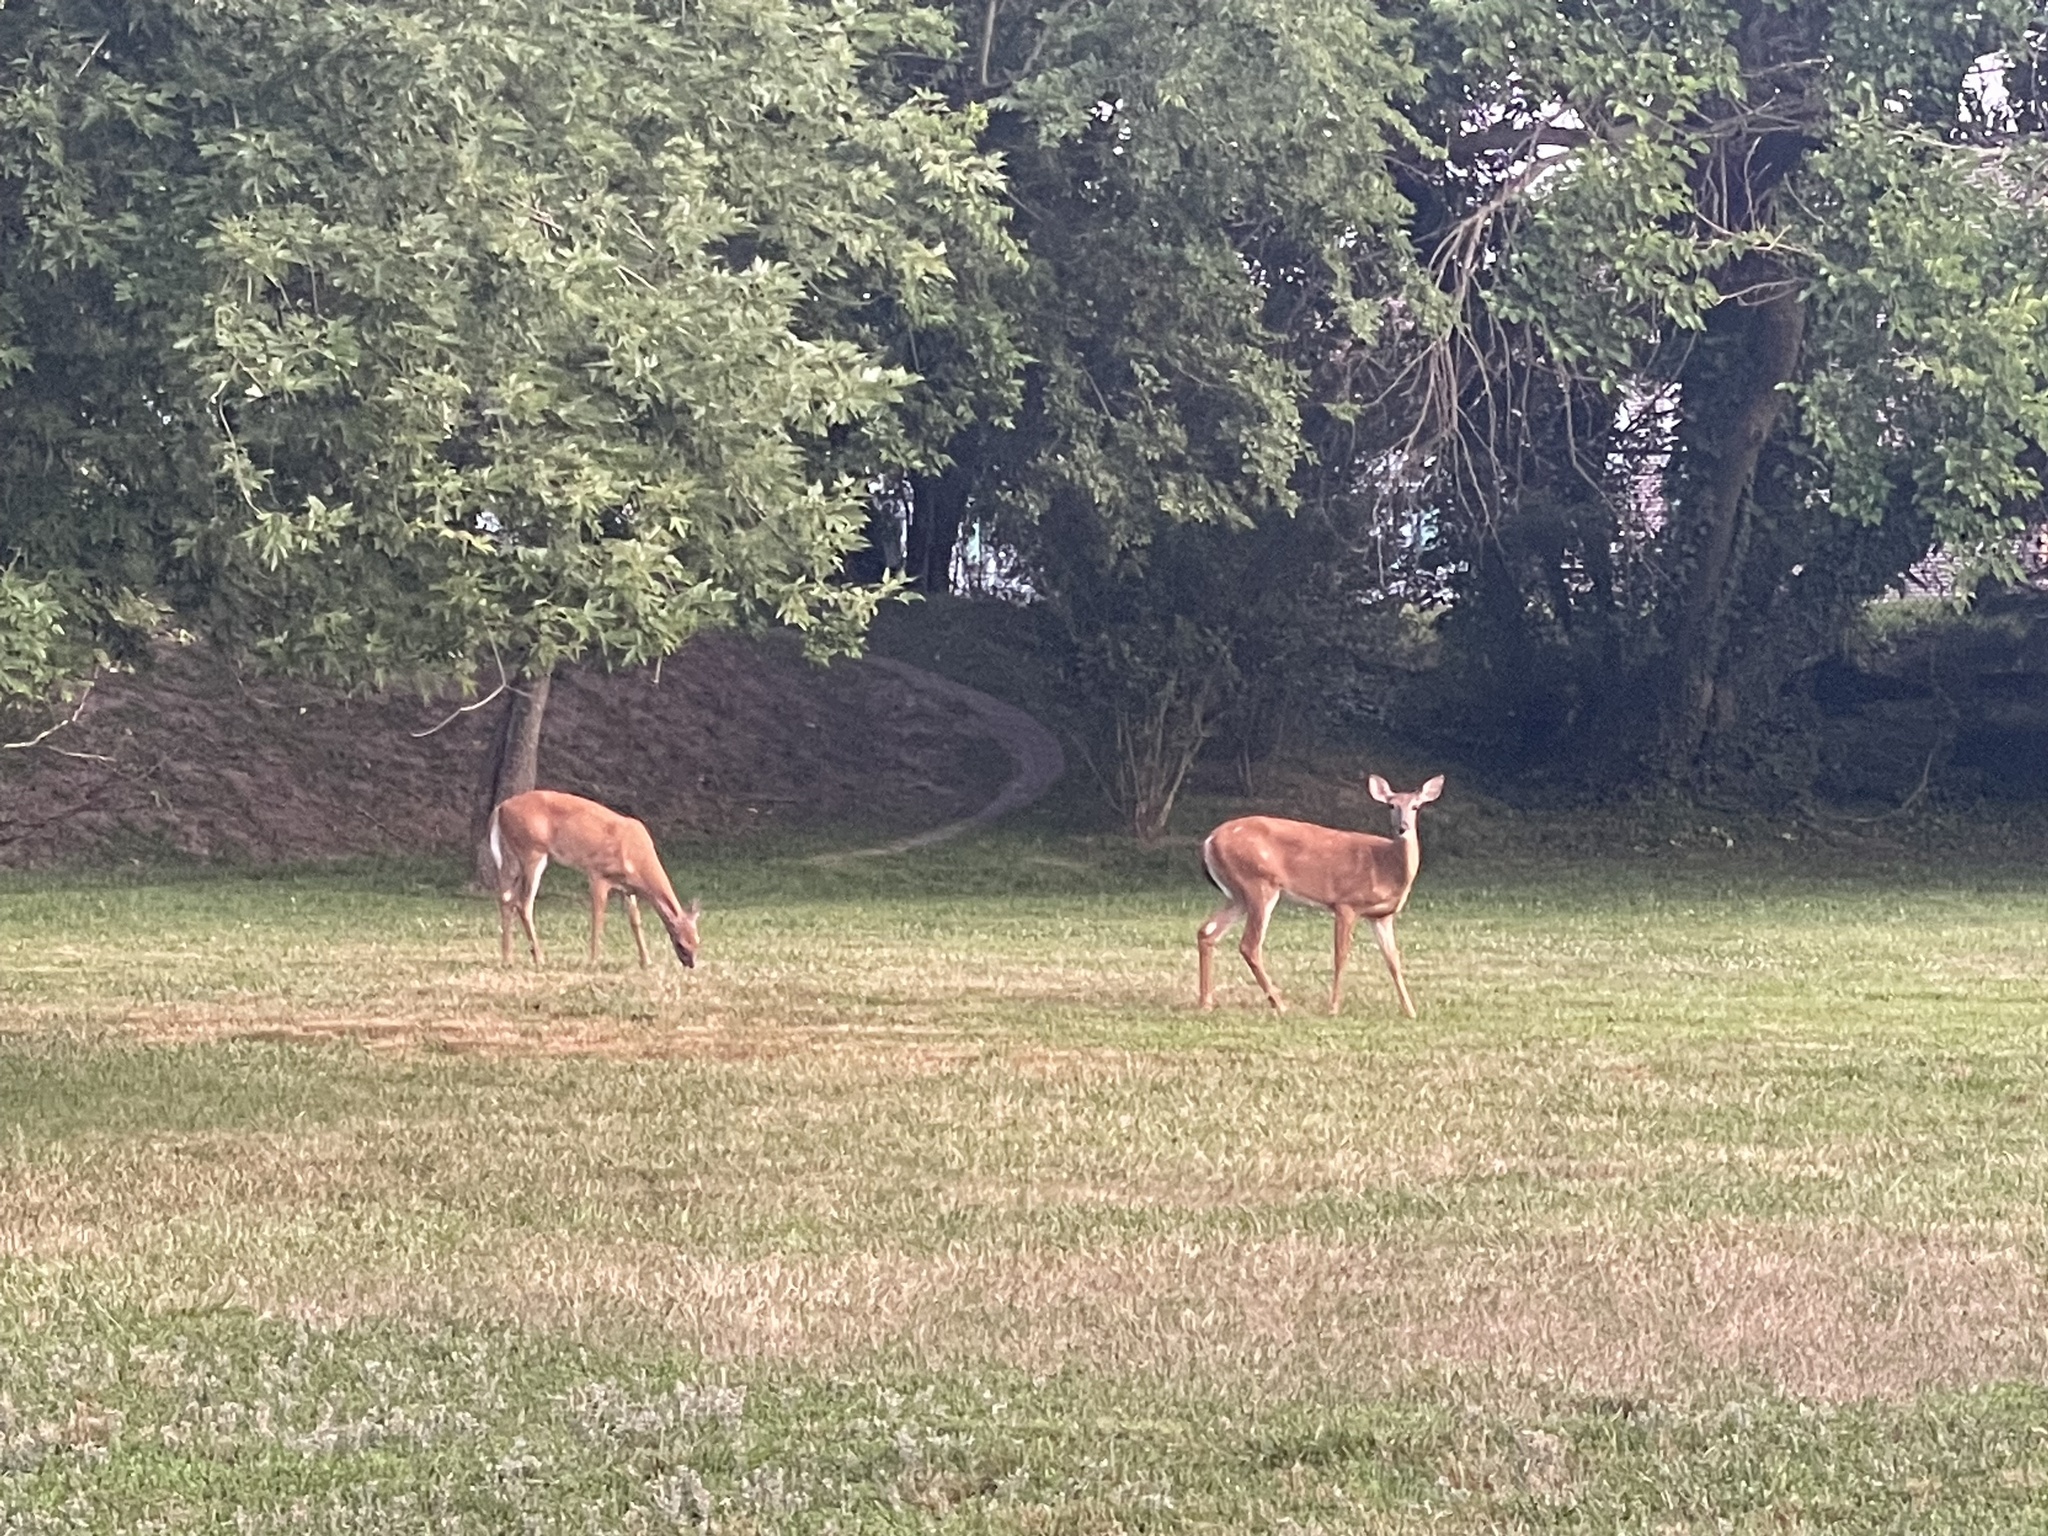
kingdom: Animalia
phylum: Chordata
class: Mammalia
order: Artiodactyla
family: Cervidae
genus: Odocoileus
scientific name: Odocoileus virginianus
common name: White-tailed deer
